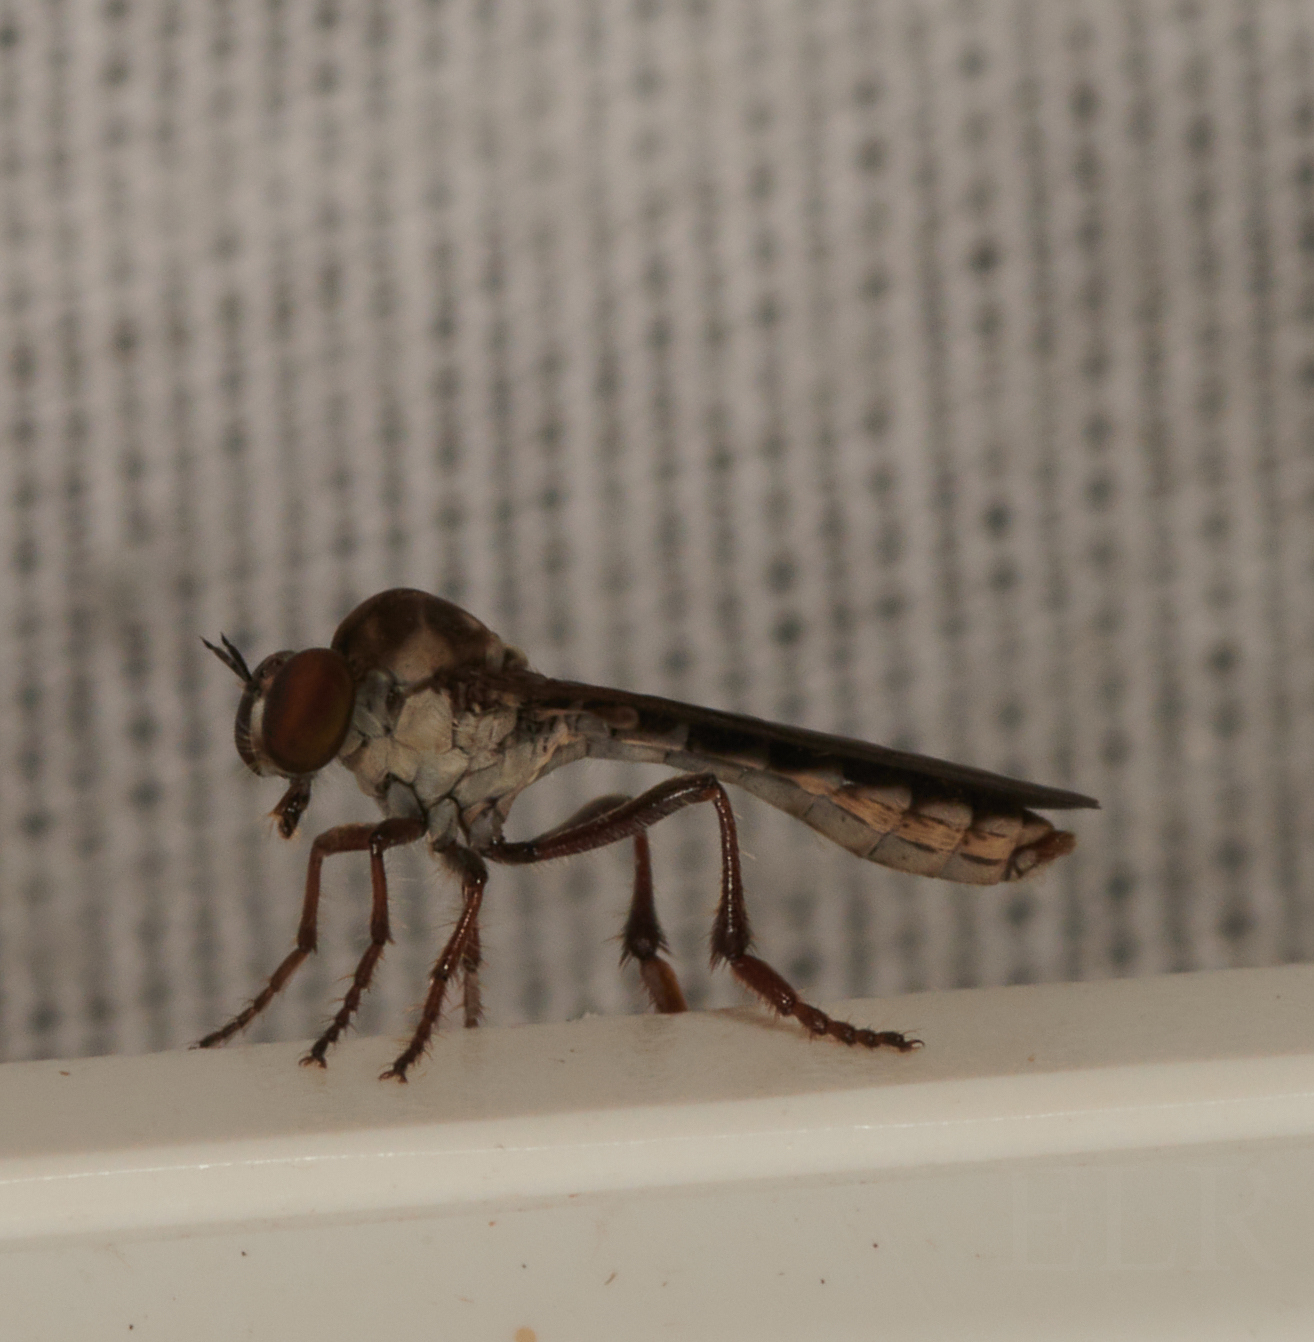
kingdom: Animalia
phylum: Arthropoda
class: Insecta
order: Diptera
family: Asilidae
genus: Holcocephala
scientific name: Holcocephala calva
